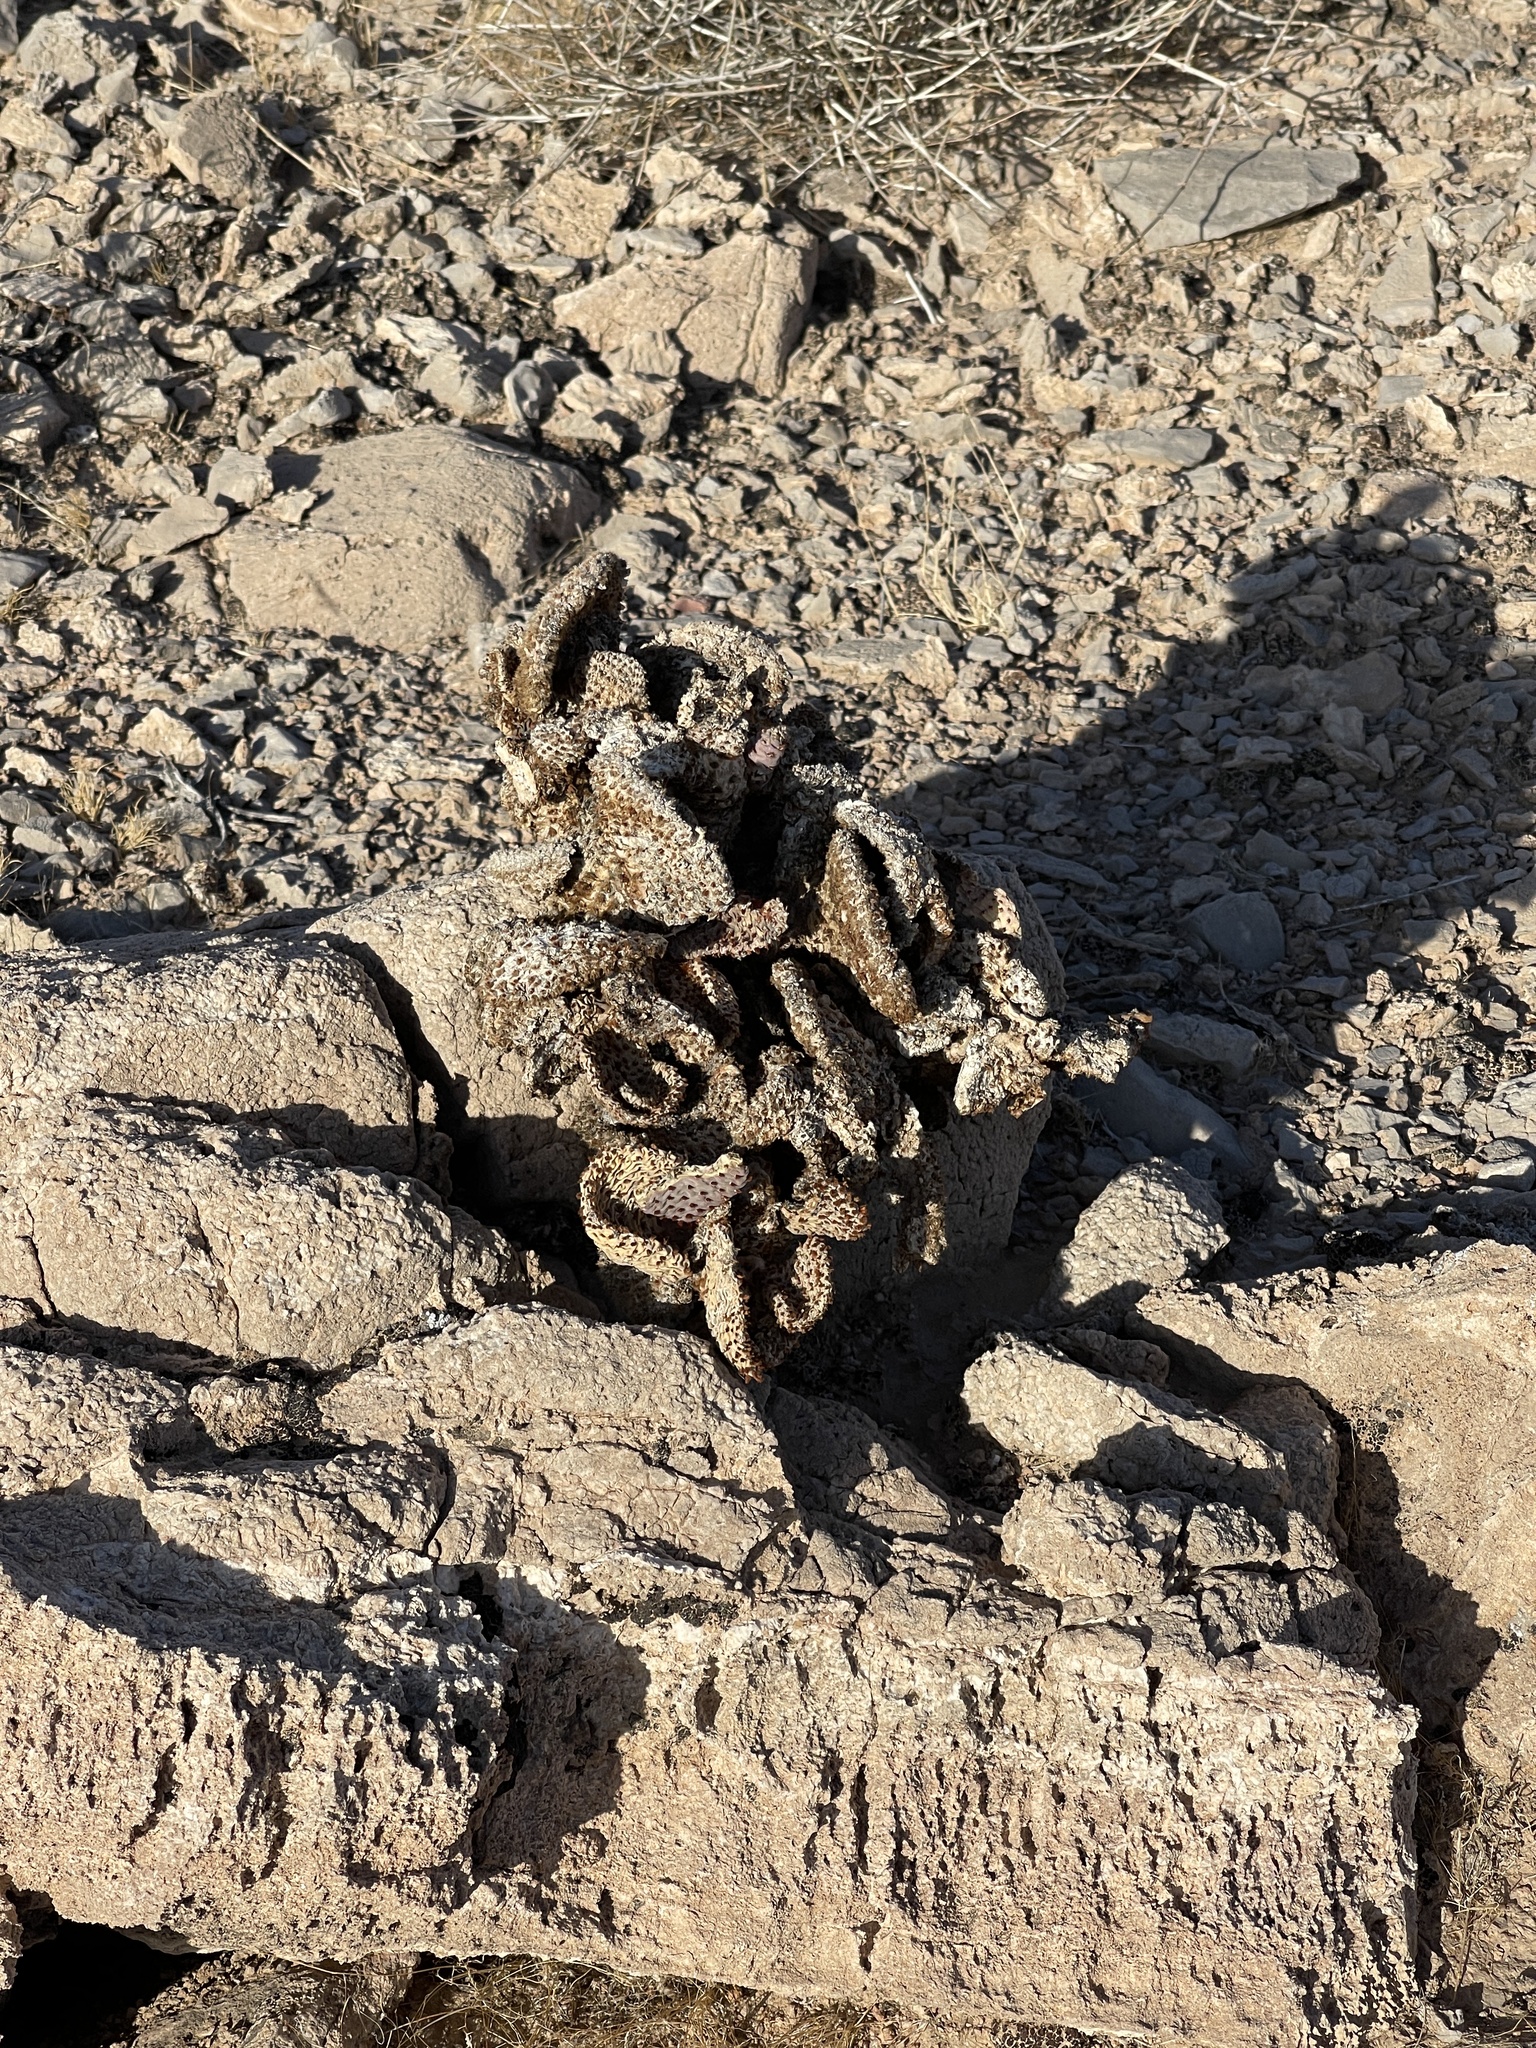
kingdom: Plantae
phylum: Tracheophyta
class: Magnoliopsida
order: Caryophyllales
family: Cactaceae
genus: Opuntia
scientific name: Opuntia basilaris
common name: Beavertail prickly-pear
